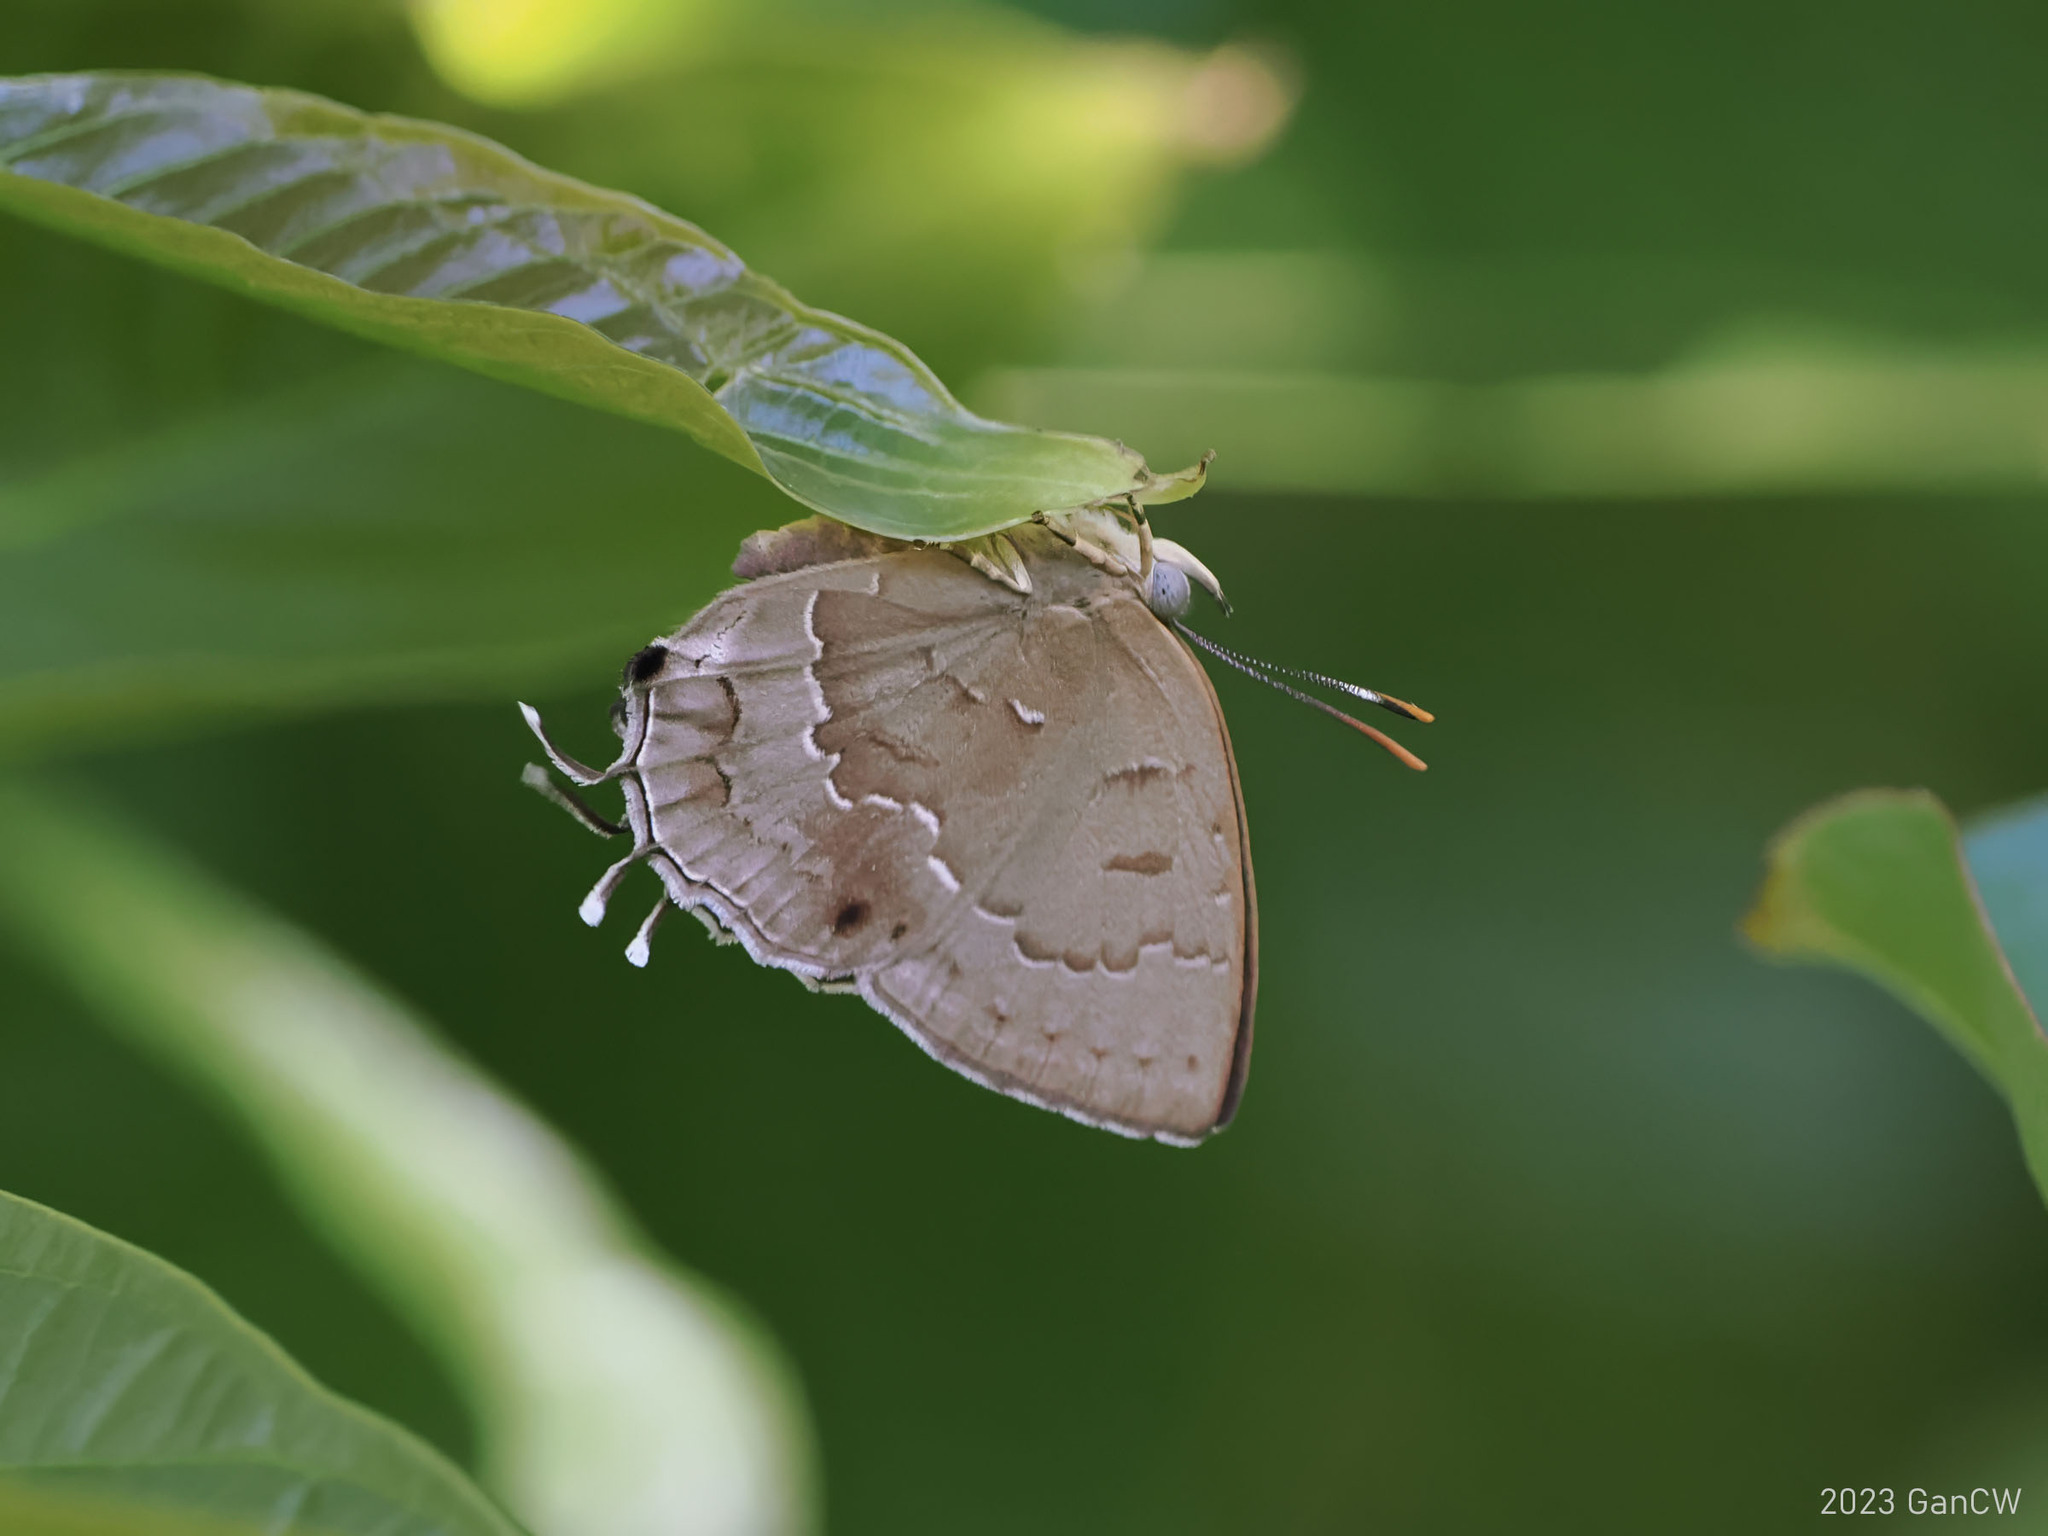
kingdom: Animalia
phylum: Arthropoda
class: Insecta
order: Lepidoptera
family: Lycaenidae
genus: Surendra
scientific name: Surendra vivarna
